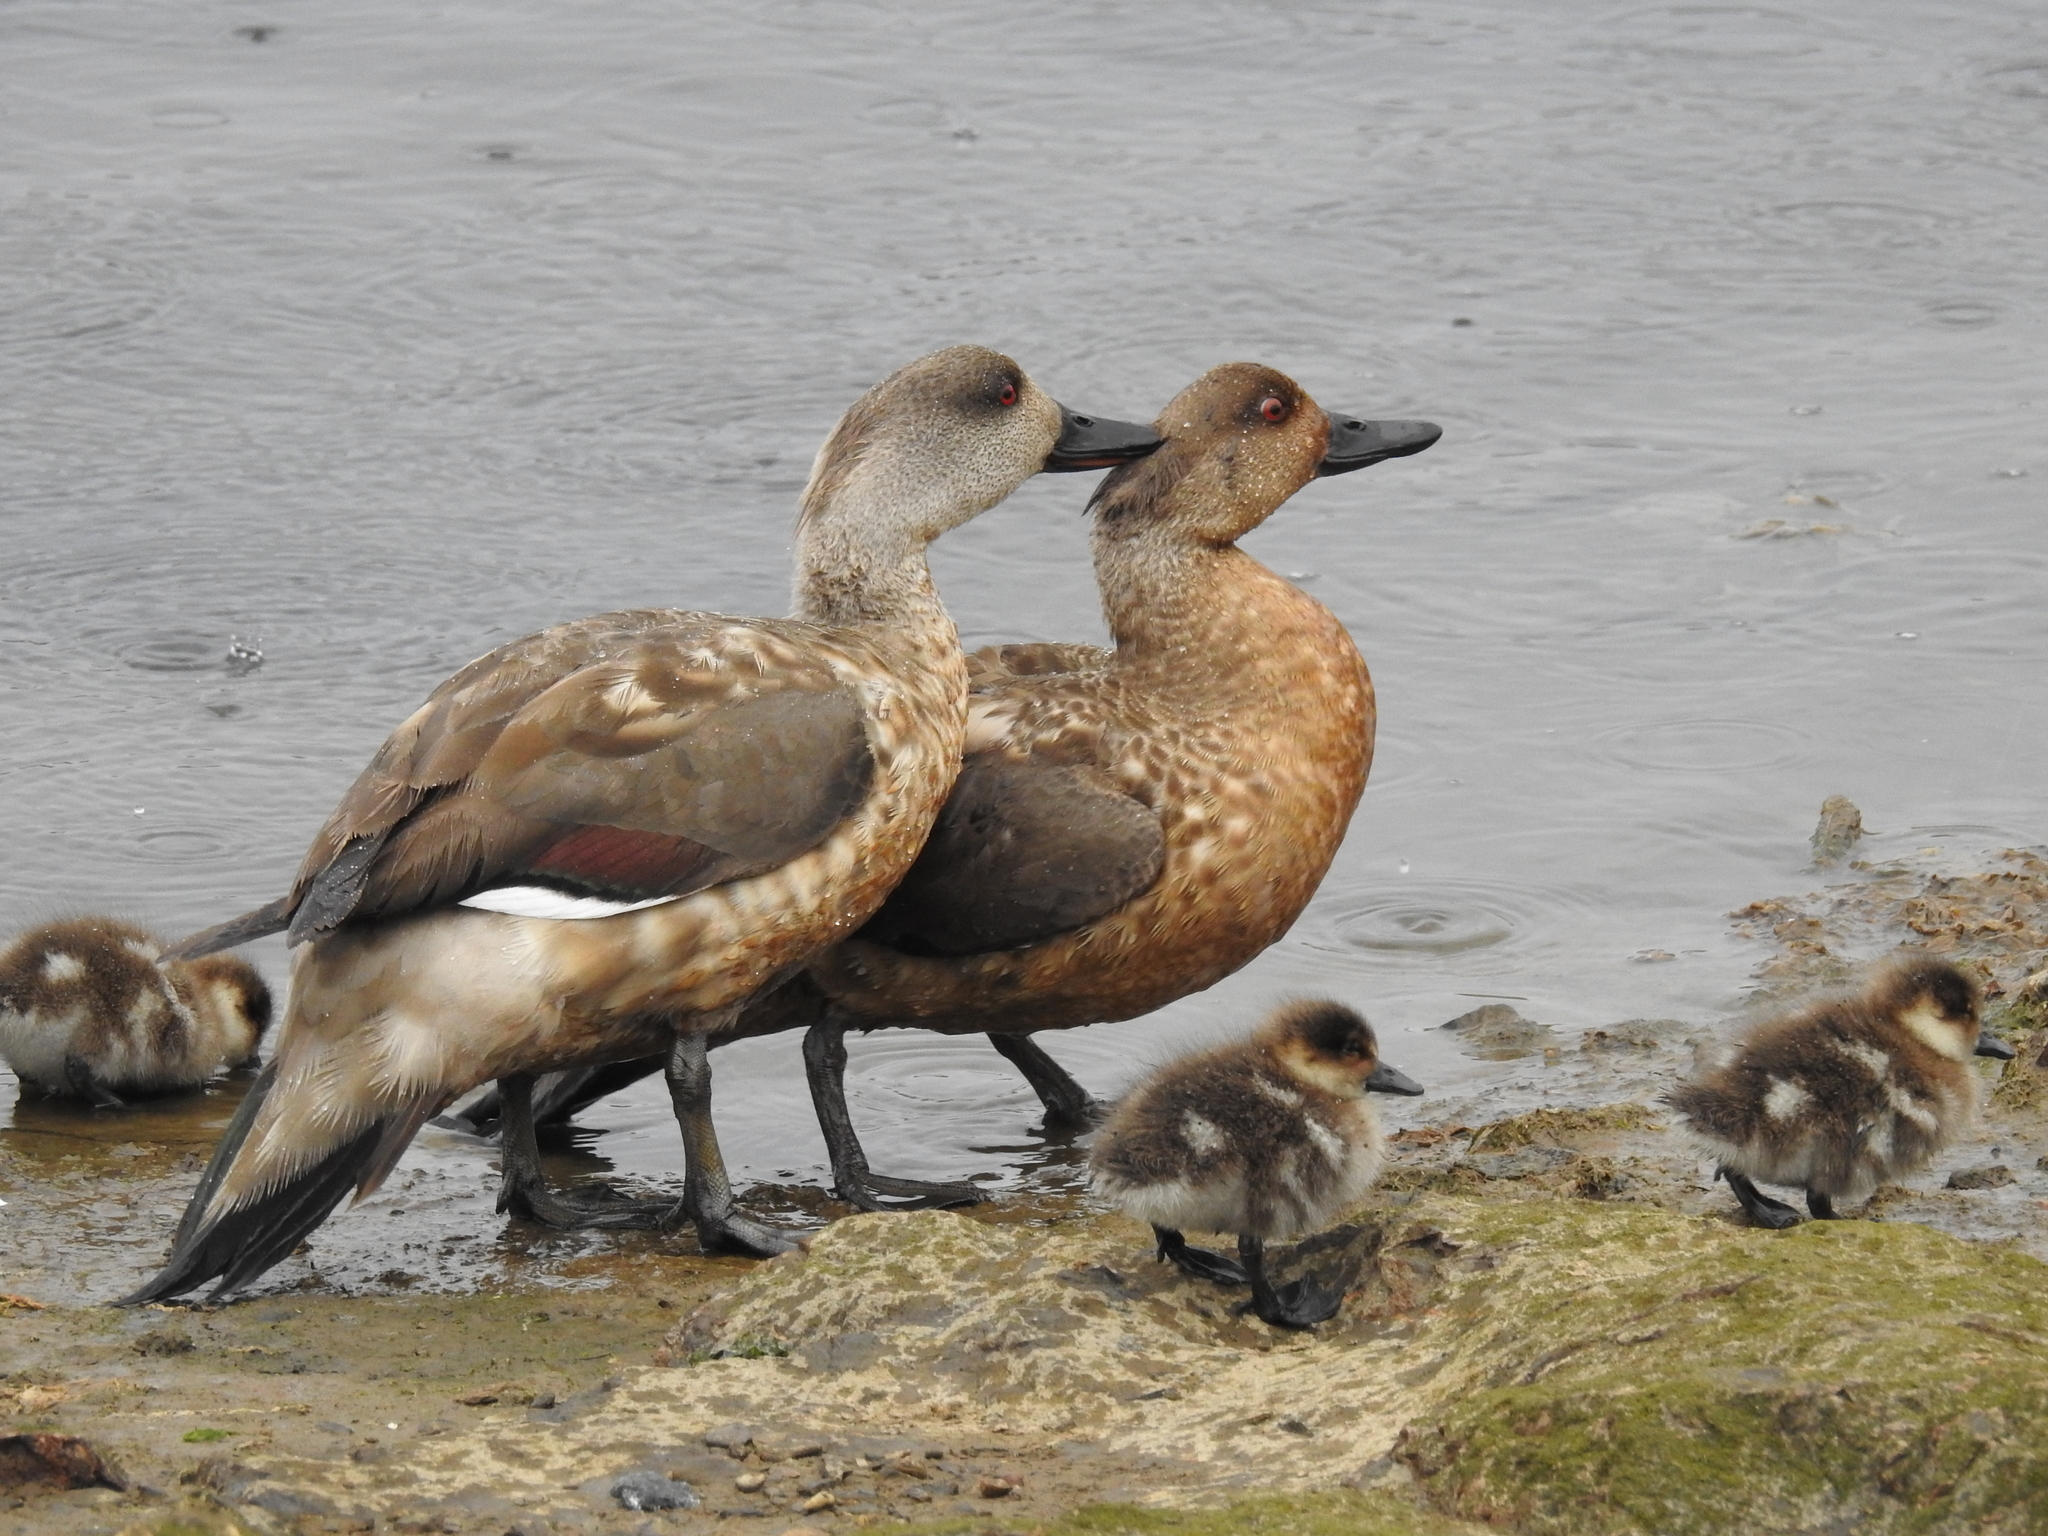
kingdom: Animalia
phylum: Chordata
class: Aves
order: Anseriformes
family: Anatidae
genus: Lophonetta
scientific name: Lophonetta specularioides
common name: Crested duck
